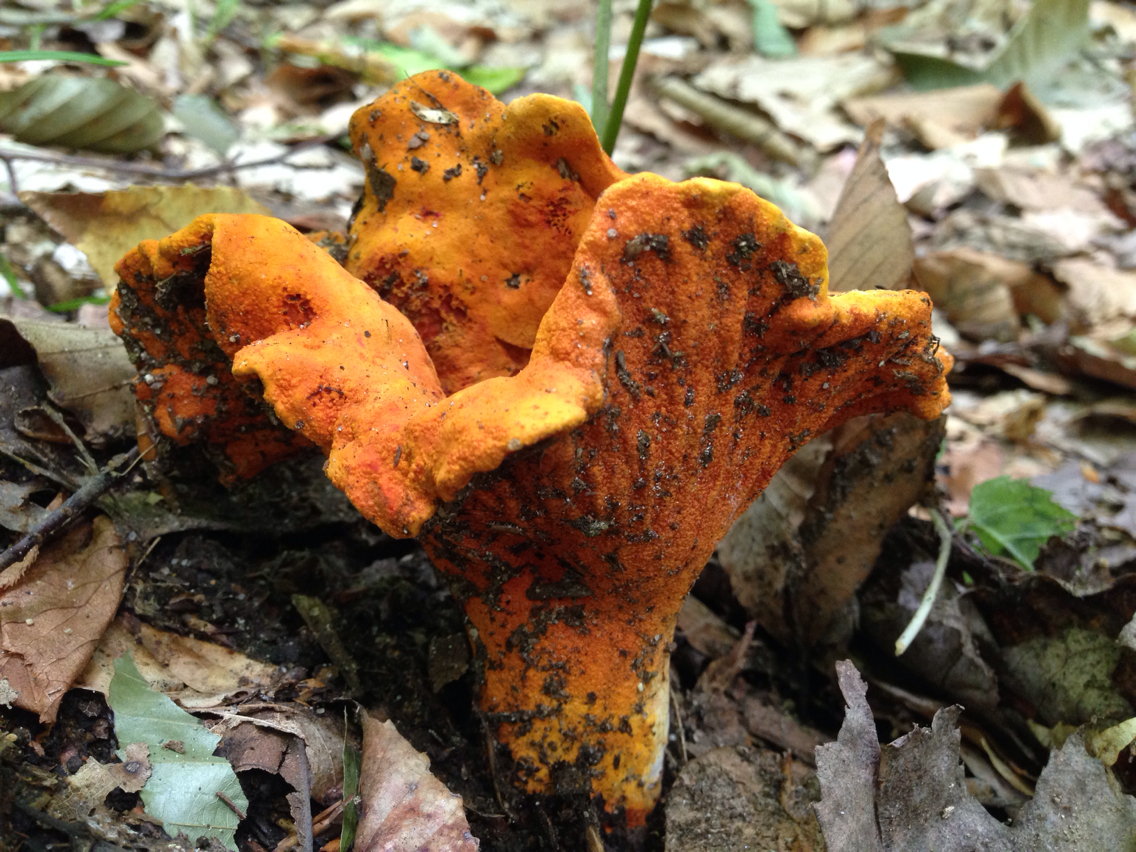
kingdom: Fungi
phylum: Ascomycota
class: Sordariomycetes
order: Hypocreales
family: Hypocreaceae
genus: Hypomyces
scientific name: Hypomyces lactifluorum
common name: Lobster mushroom
